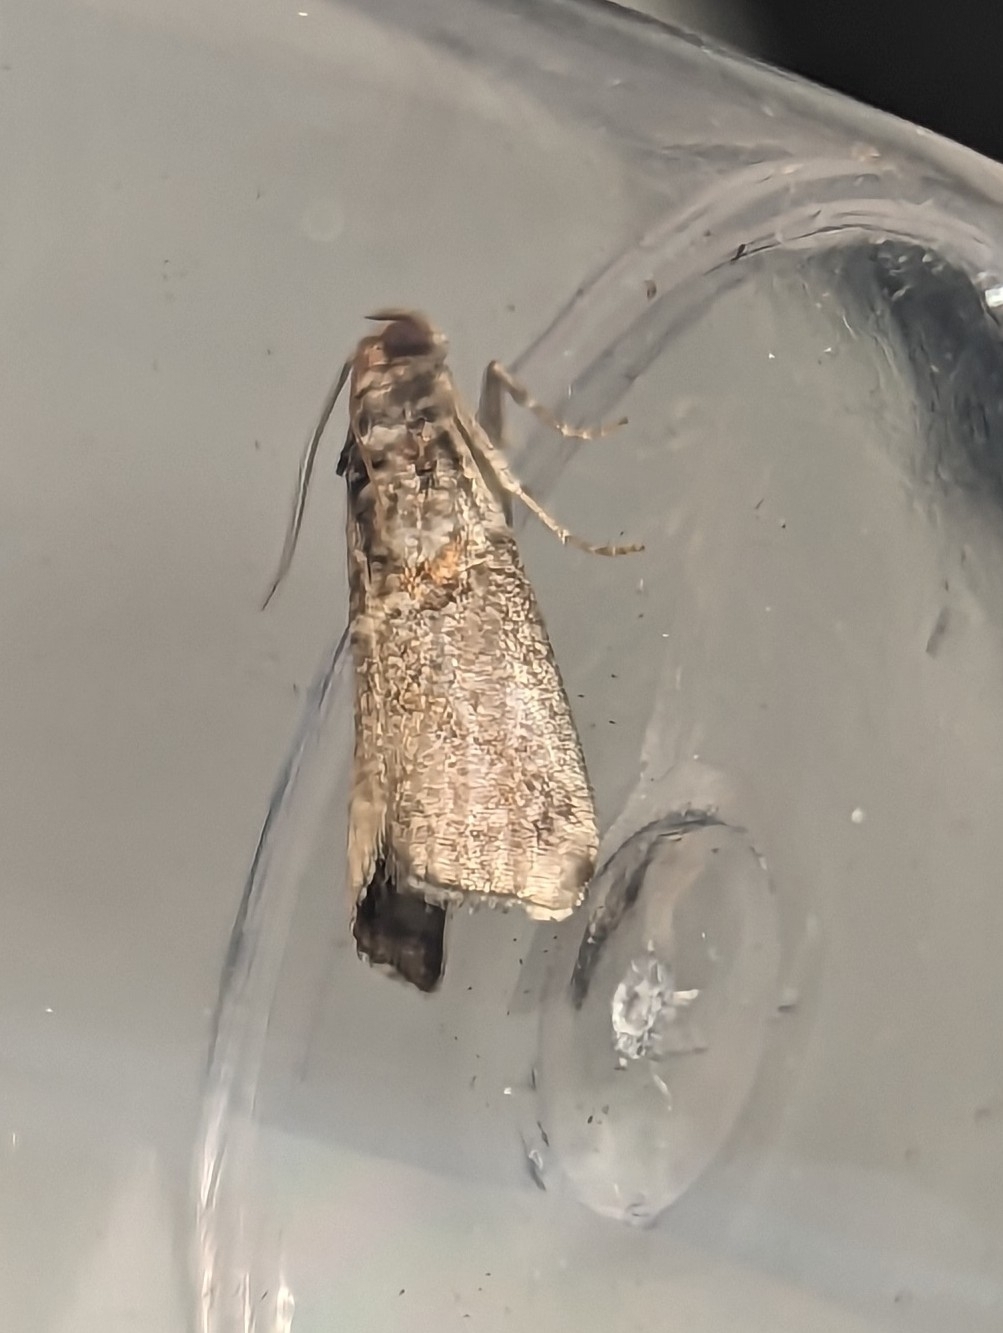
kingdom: Animalia
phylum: Arthropoda
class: Insecta
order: Lepidoptera
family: Pyralidae
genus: Acrobasis
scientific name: Acrobasis advenella
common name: Grey knot-horn
